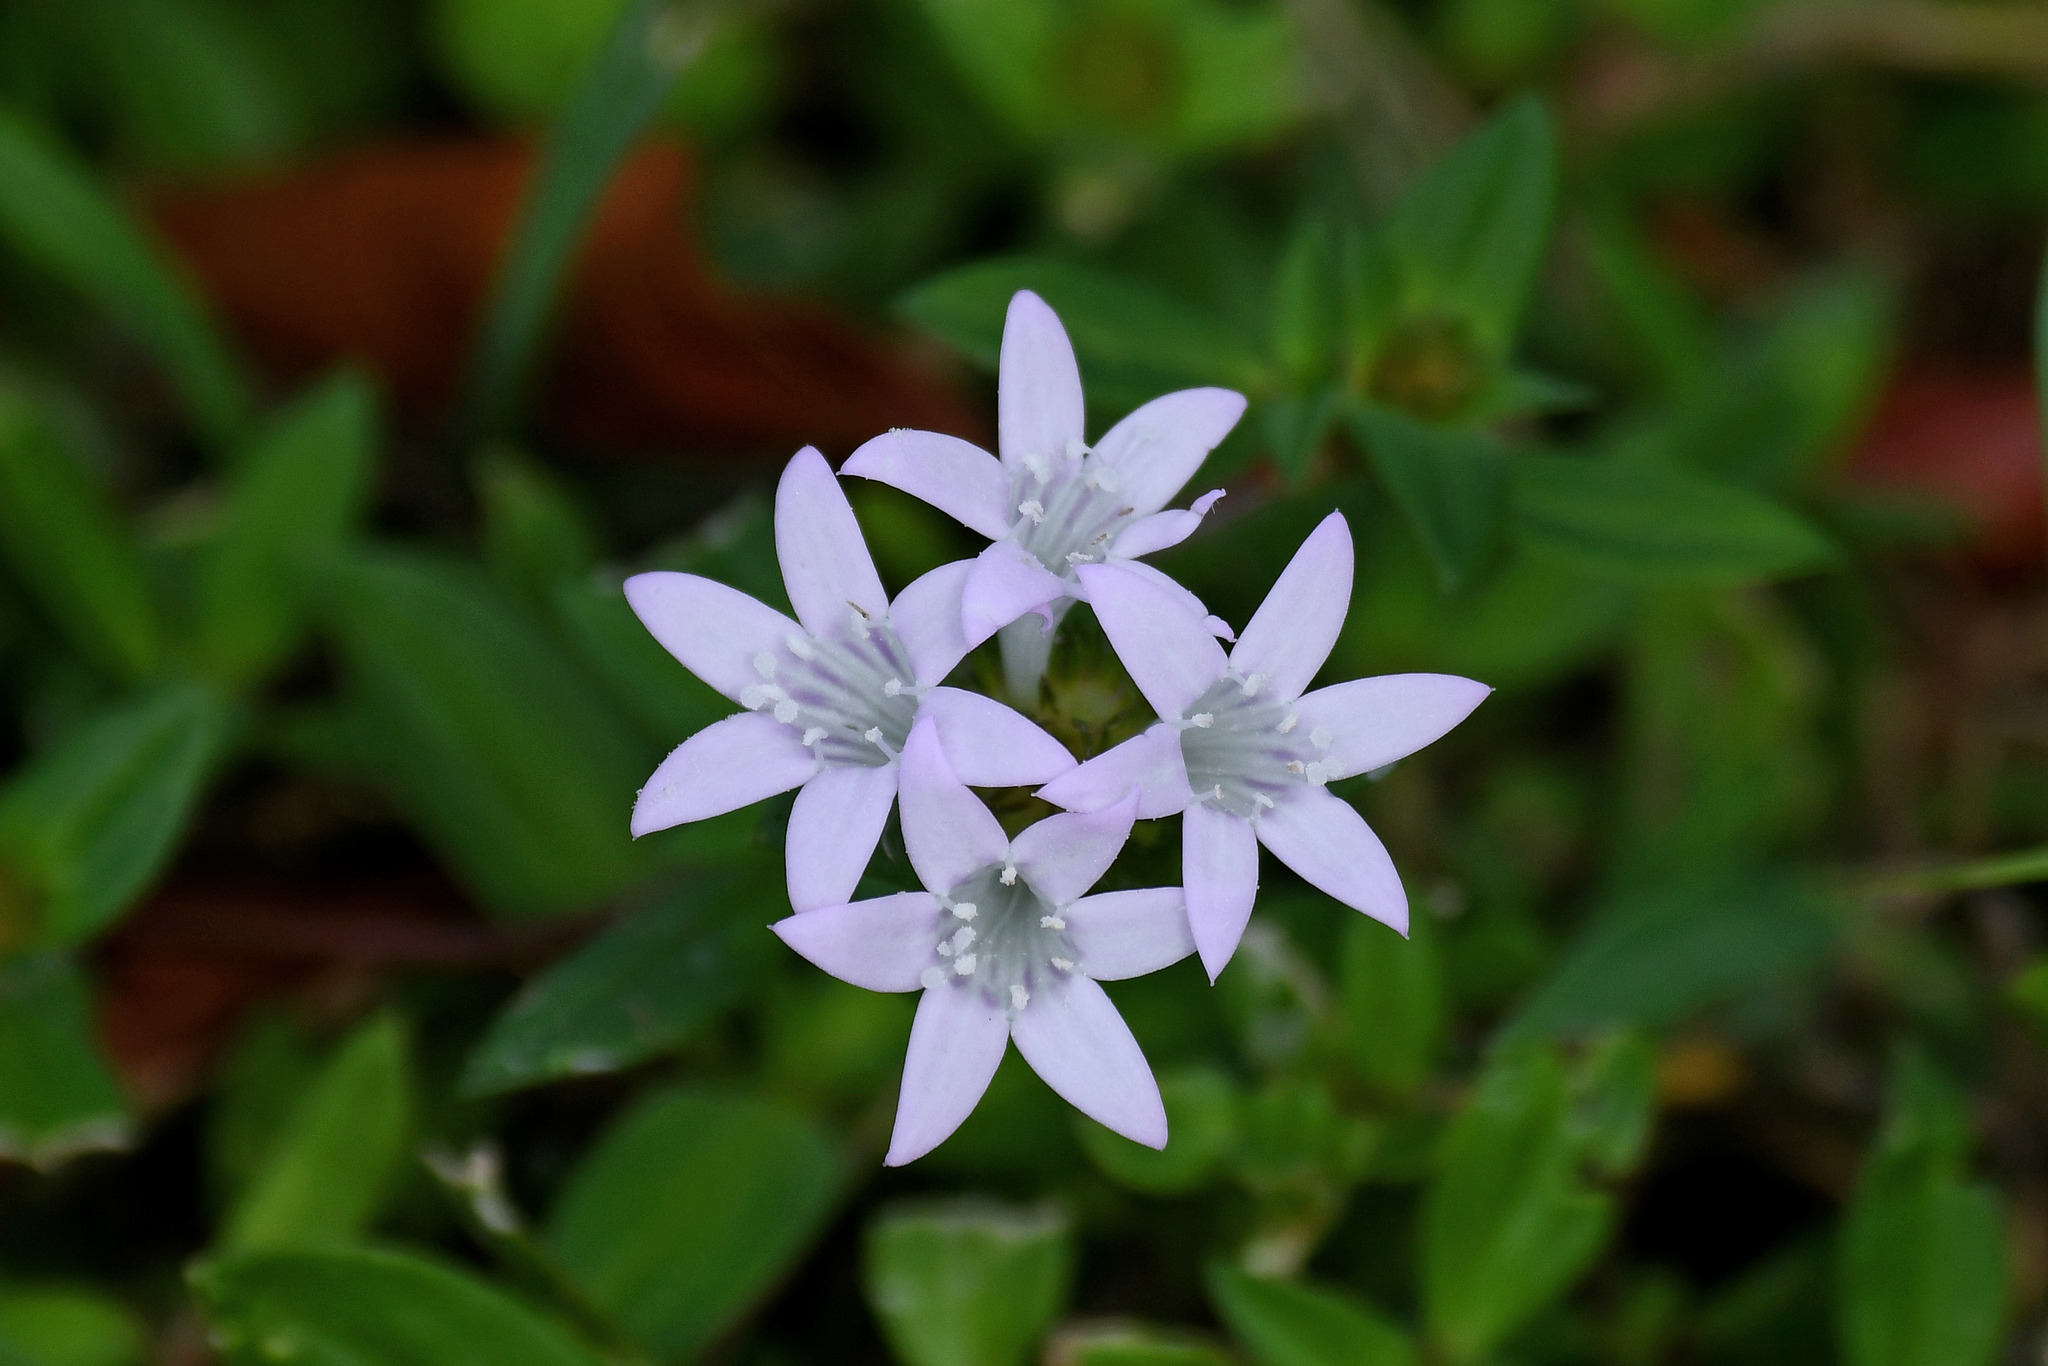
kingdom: Plantae
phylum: Tracheophyta
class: Magnoliopsida
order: Gentianales
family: Rubiaceae
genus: Richardia
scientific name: Richardia grandiflora
